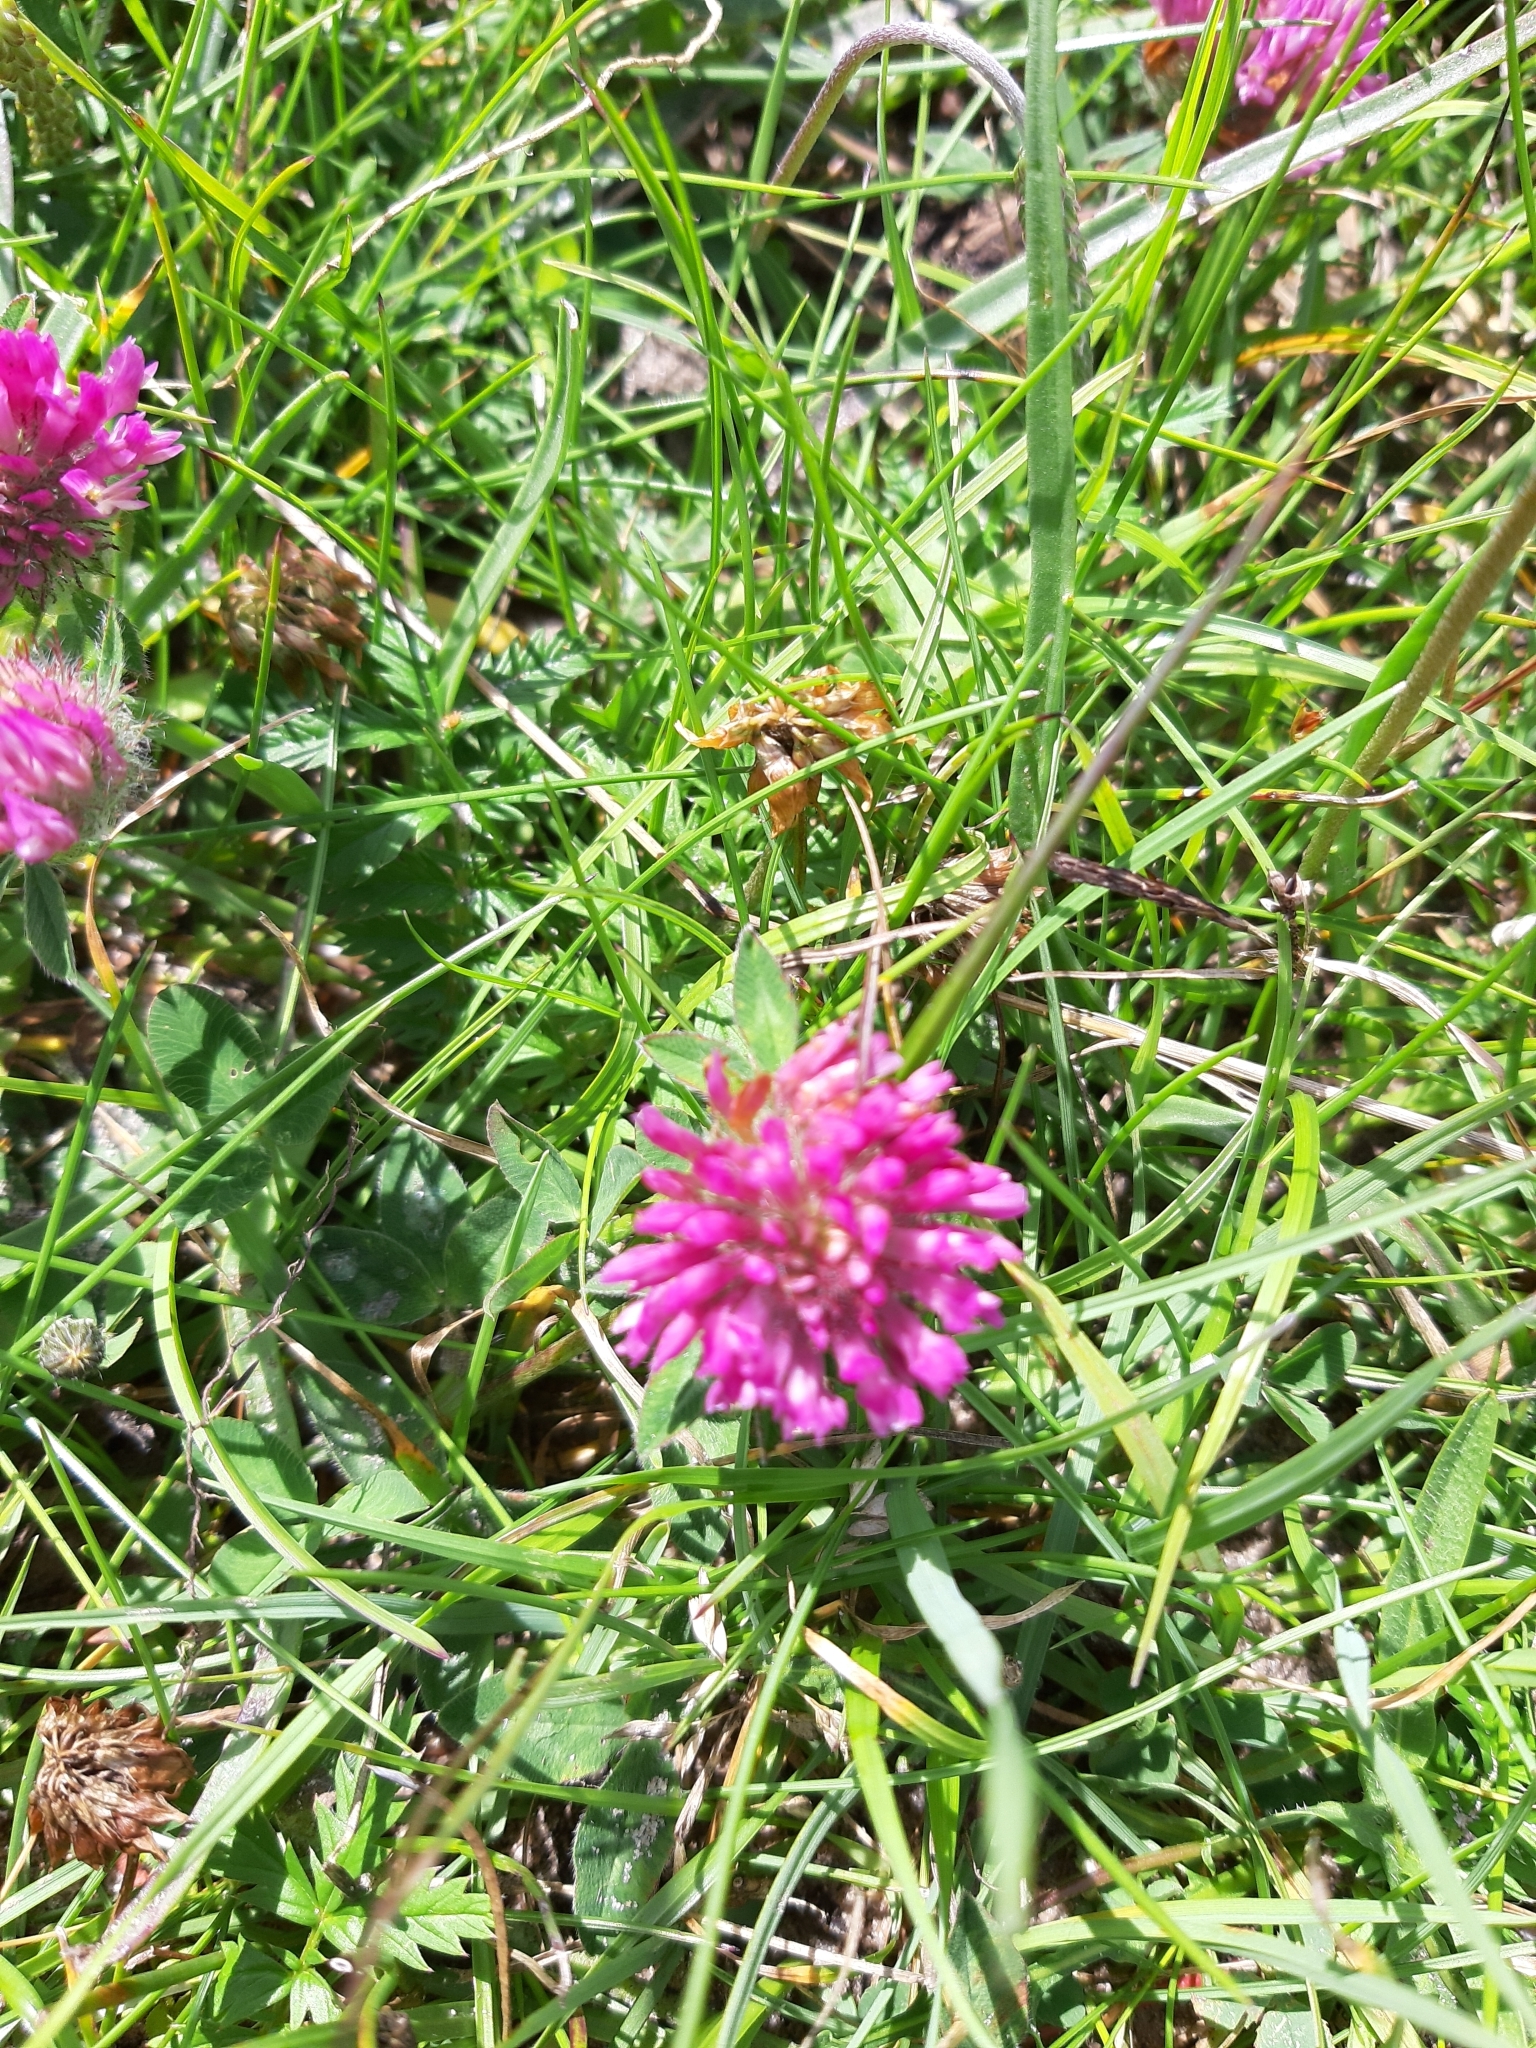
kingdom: Plantae
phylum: Tracheophyta
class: Magnoliopsida
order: Fabales
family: Fabaceae
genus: Trifolium
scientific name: Trifolium pratense
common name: Red clover
